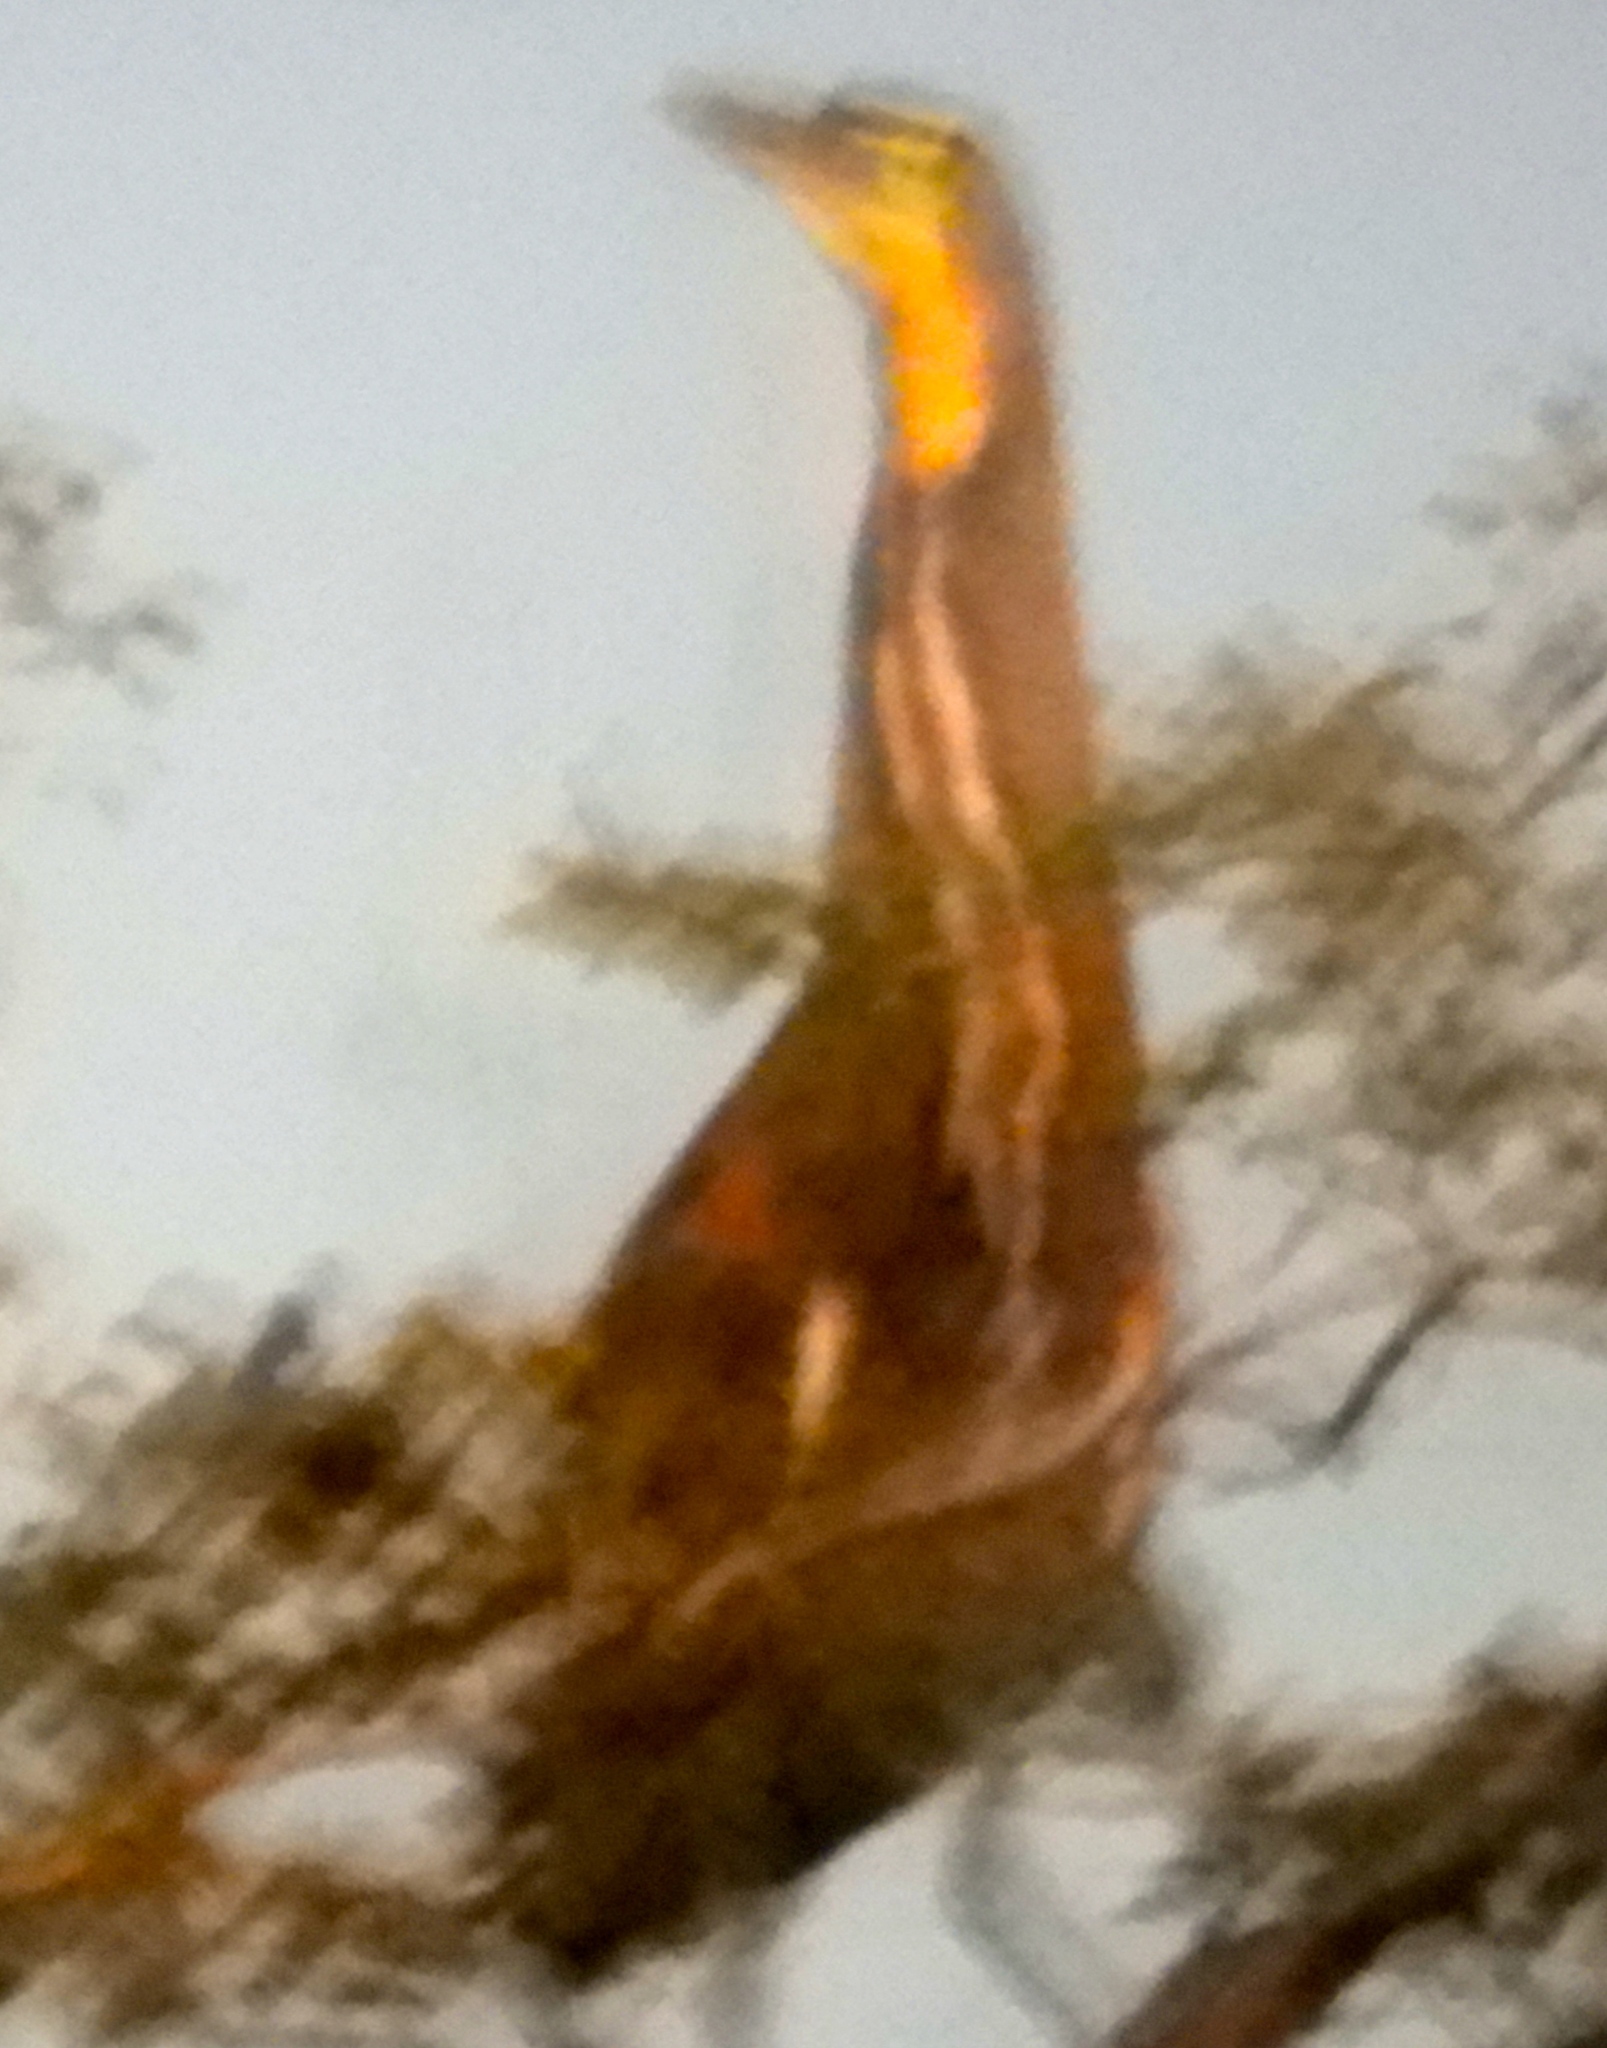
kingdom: Animalia
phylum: Chordata
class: Aves
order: Pelecaniformes
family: Ardeidae
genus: Tigrisoma
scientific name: Tigrisoma mexicanum
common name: Bare-throated tiger-heron
